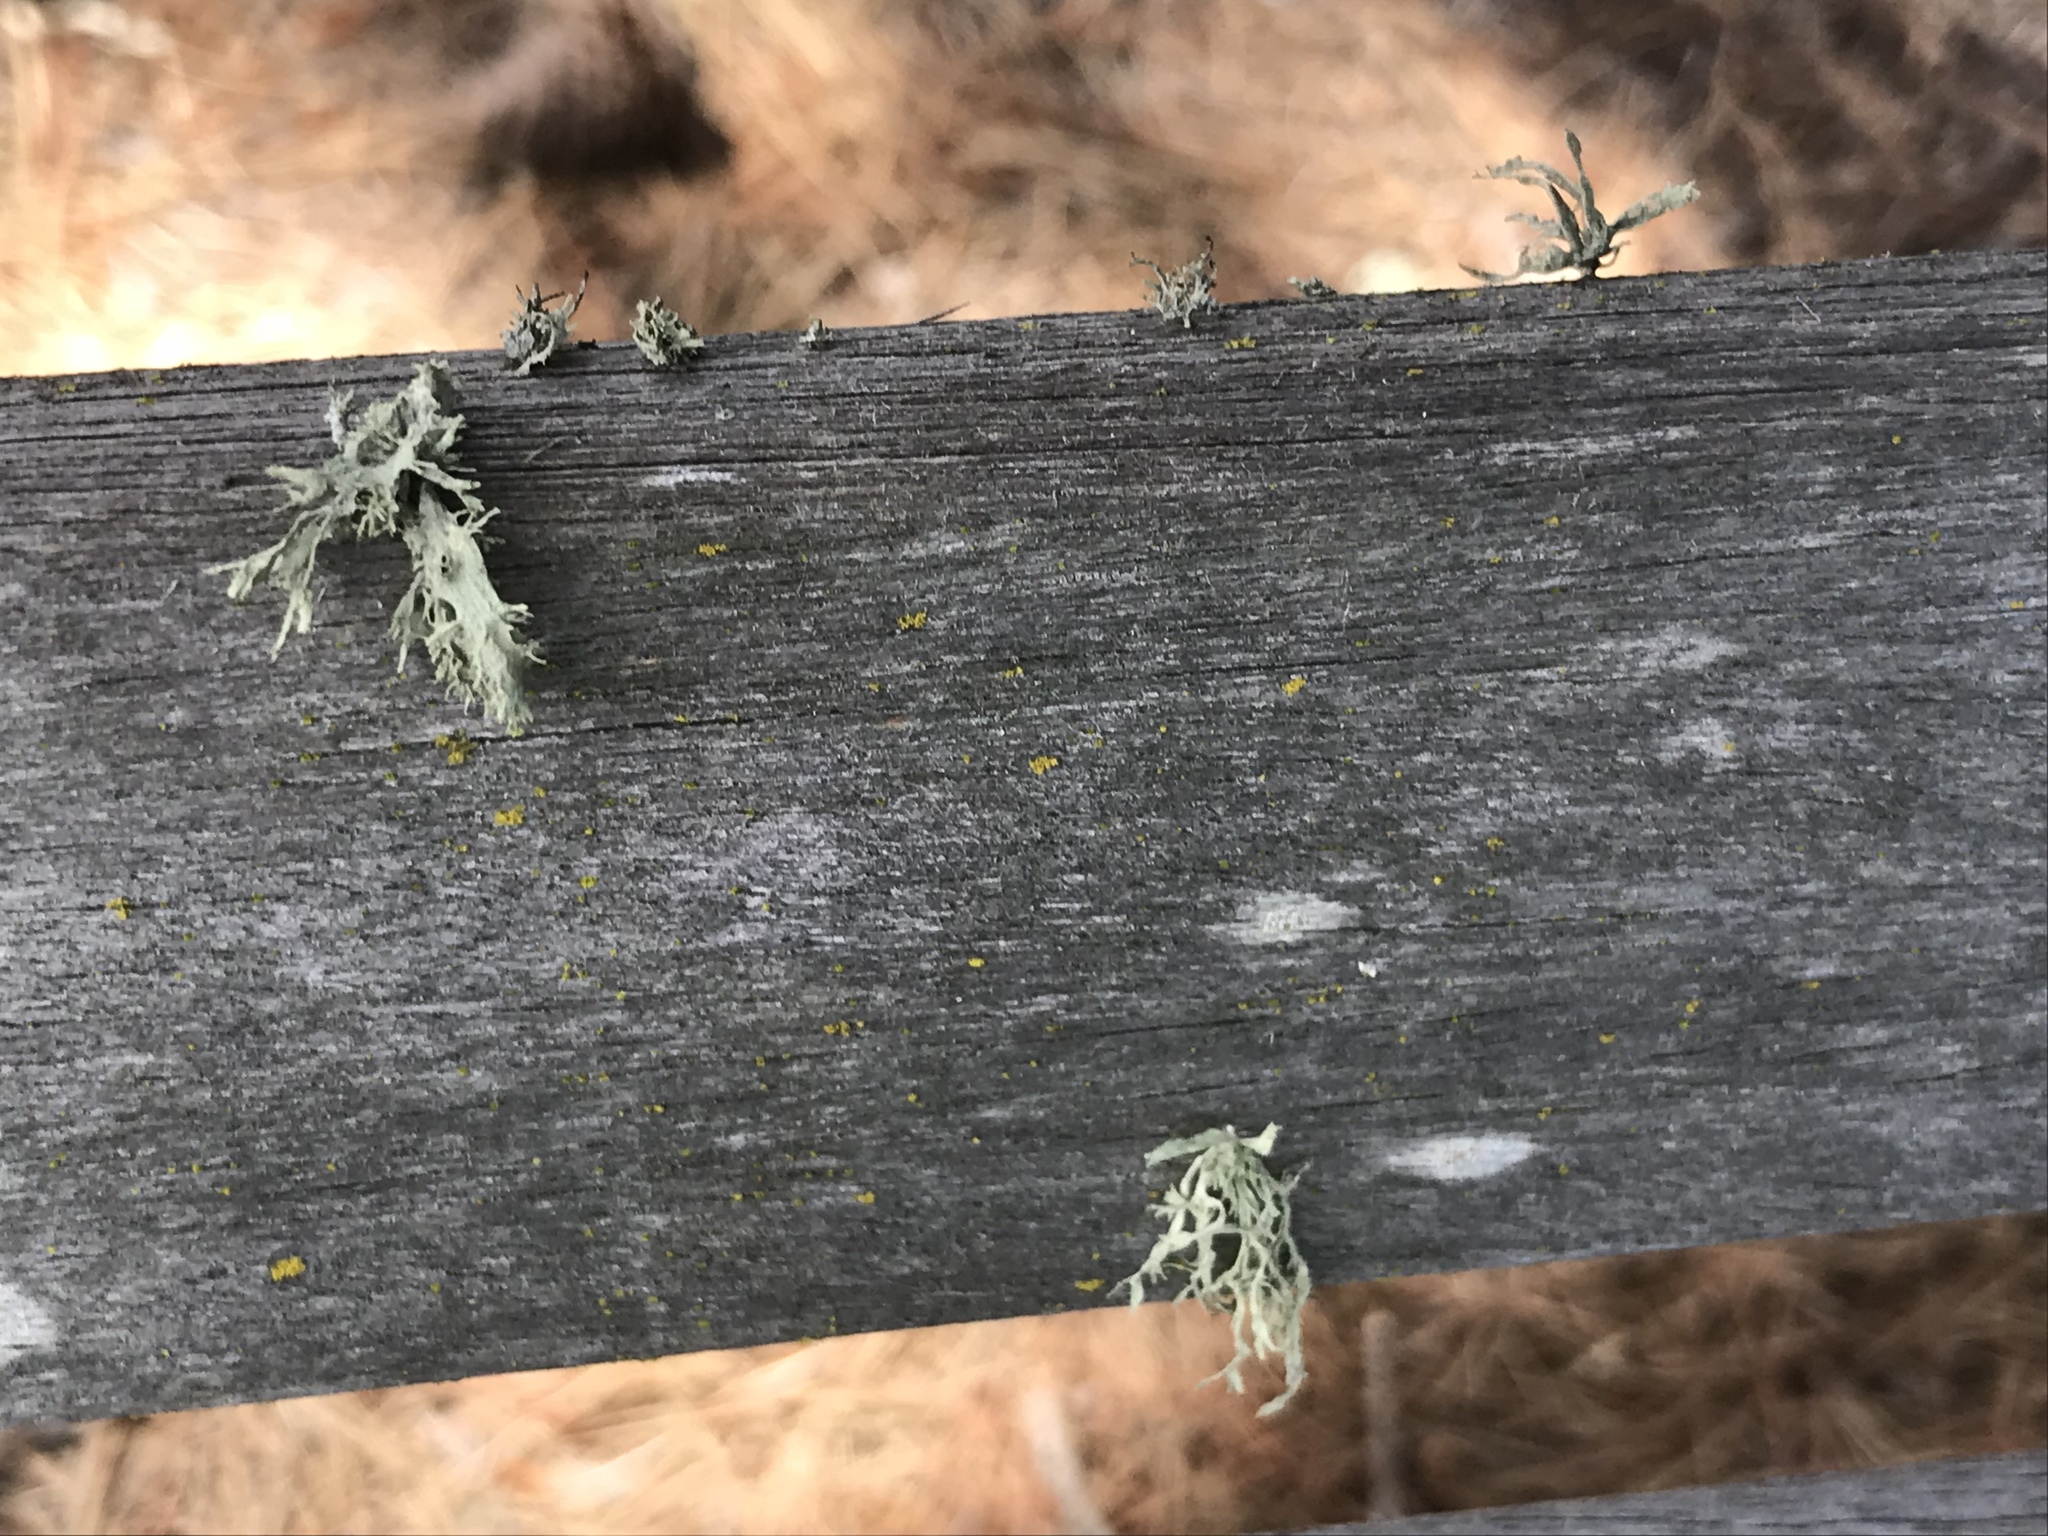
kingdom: Fungi
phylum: Ascomycota
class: Lecanoromycetes
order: Lecanorales
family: Ramalinaceae
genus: Ramalina
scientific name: Ramalina
